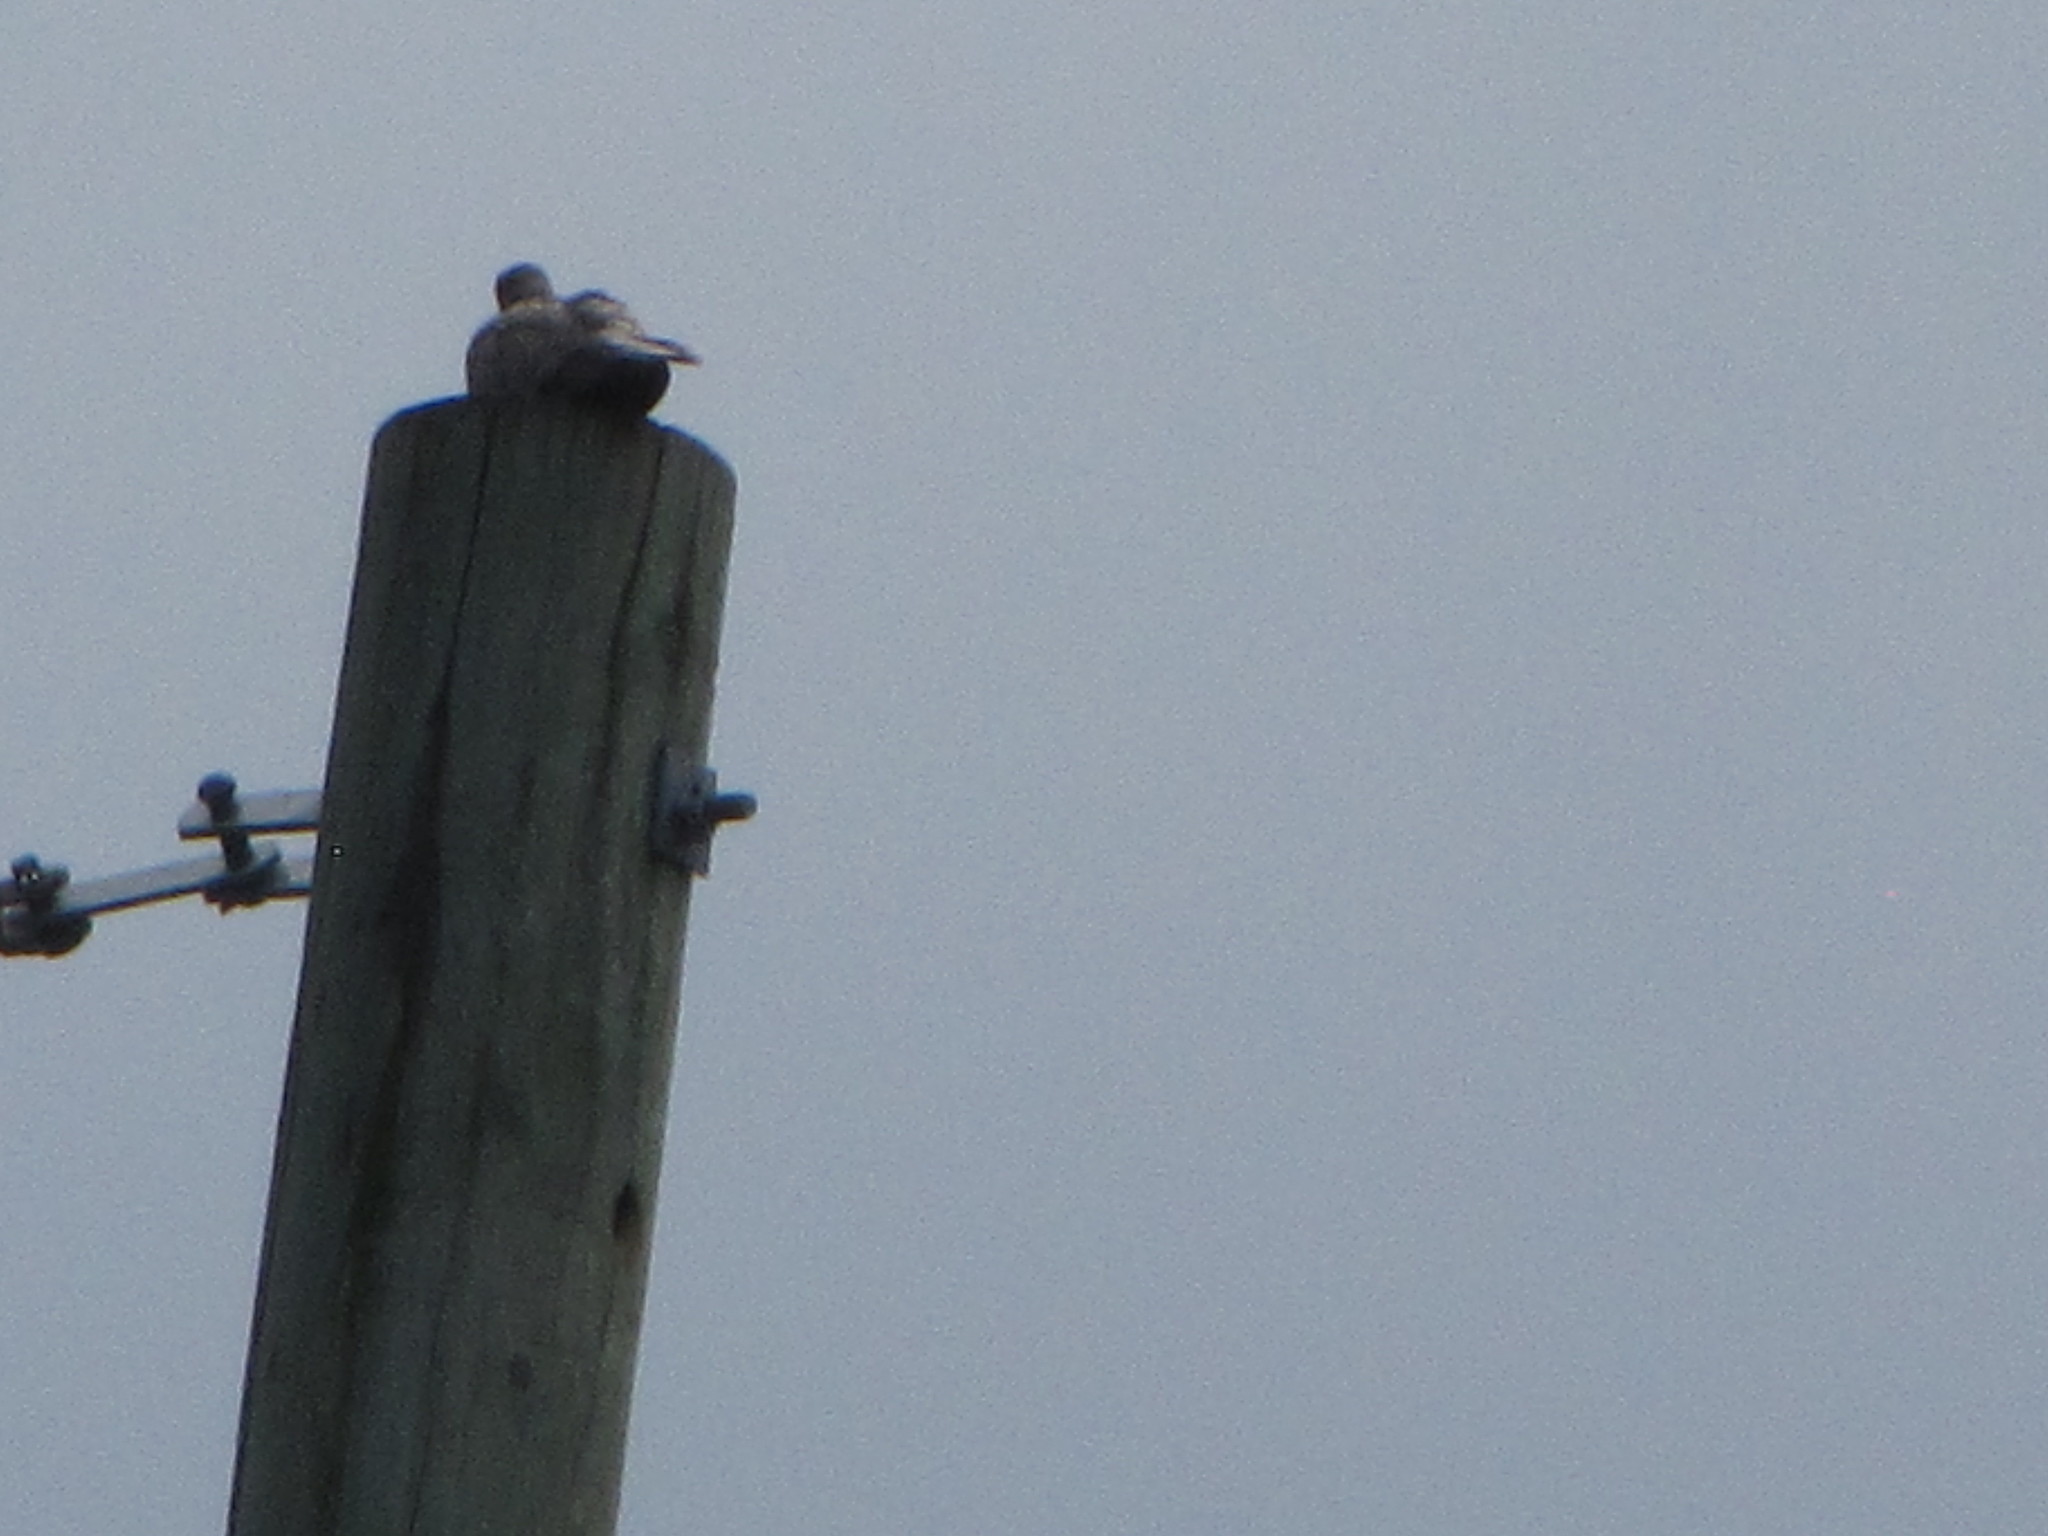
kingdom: Animalia
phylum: Chordata
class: Aves
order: Columbiformes
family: Columbidae
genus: Streptopelia
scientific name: Streptopelia decaocto
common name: Eurasian collared dove
